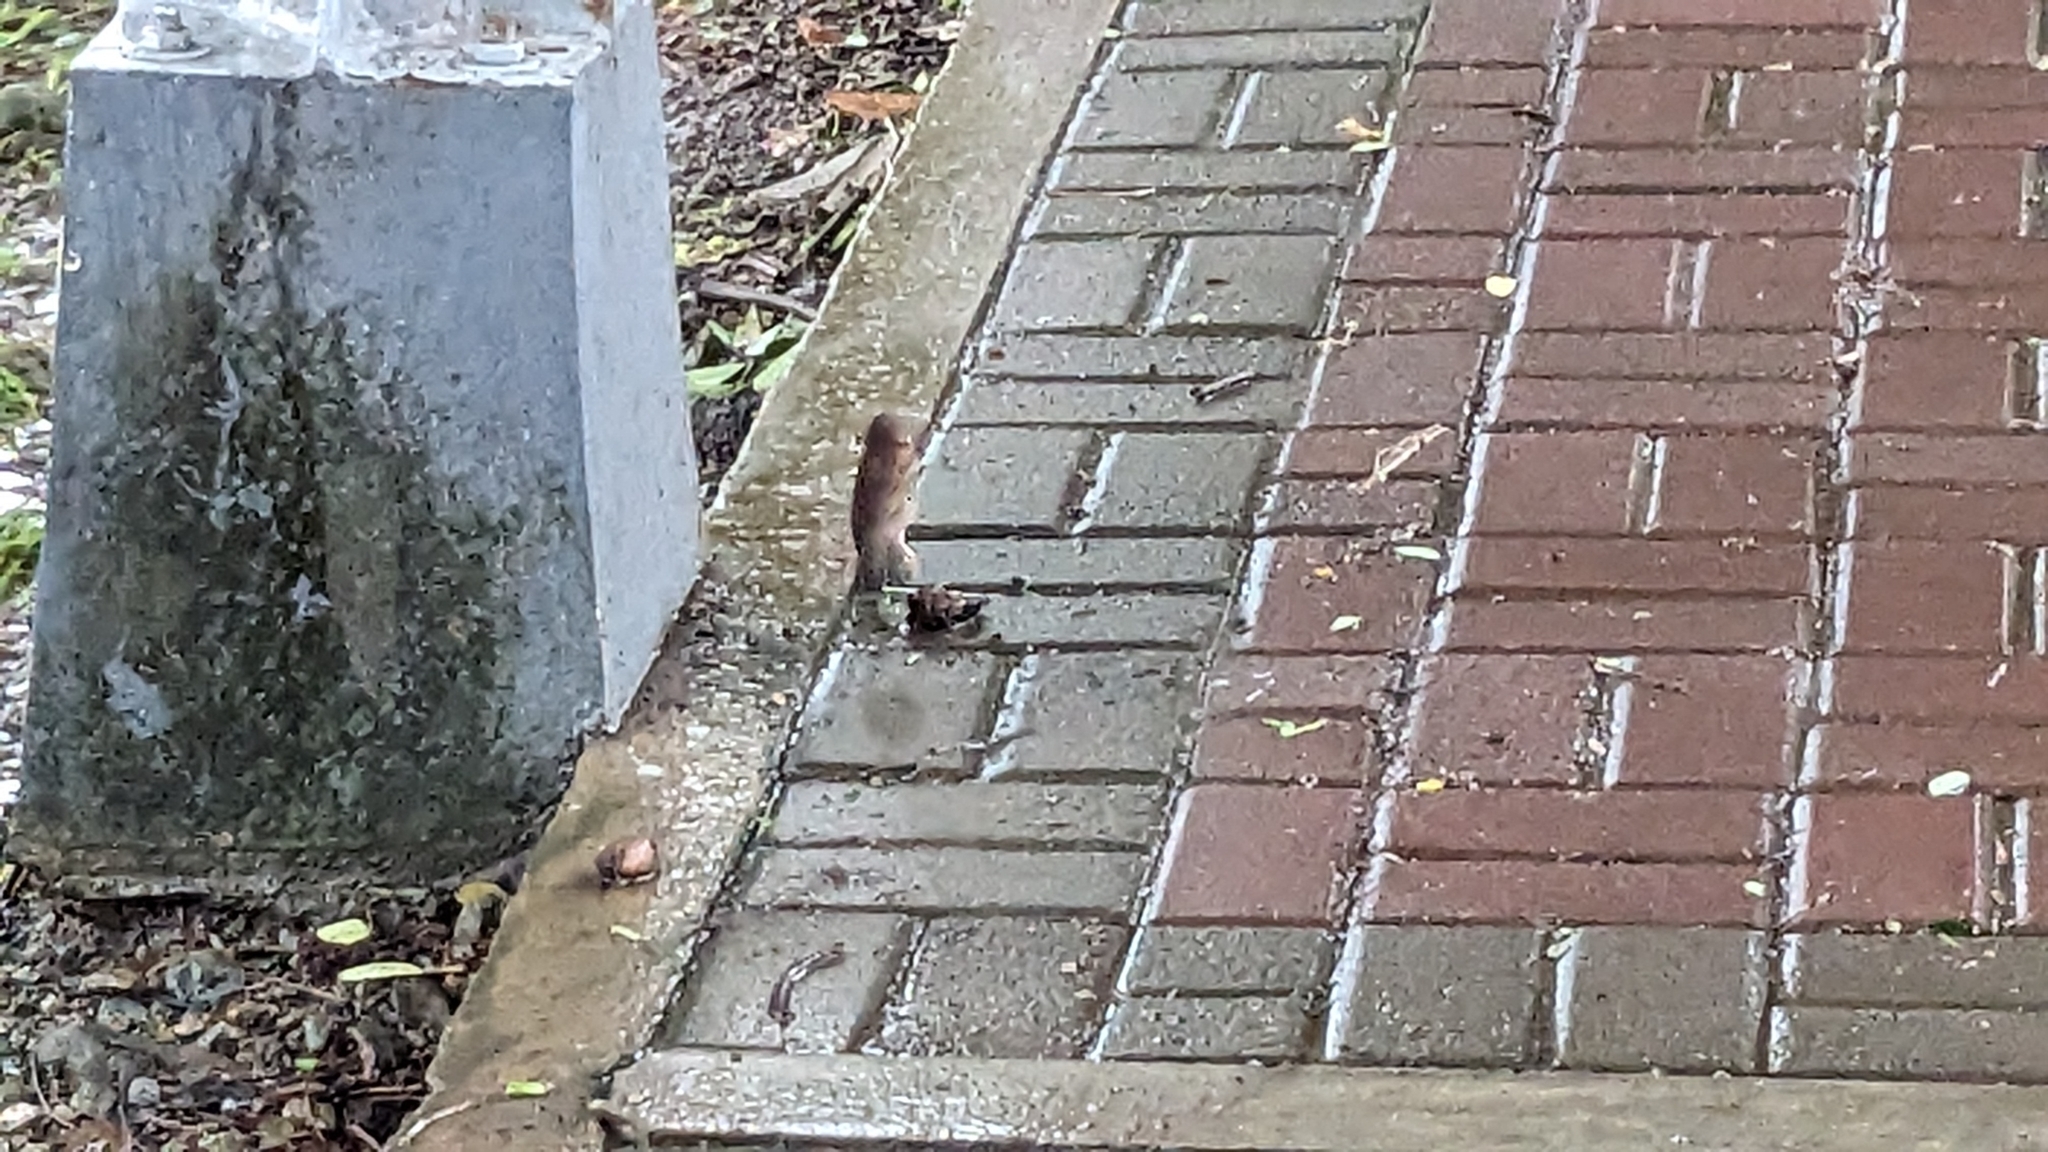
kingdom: Animalia
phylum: Chordata
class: Aves
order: Passeriformes
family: Passeridae
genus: Passer
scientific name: Passer montanus
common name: Eurasian tree sparrow
